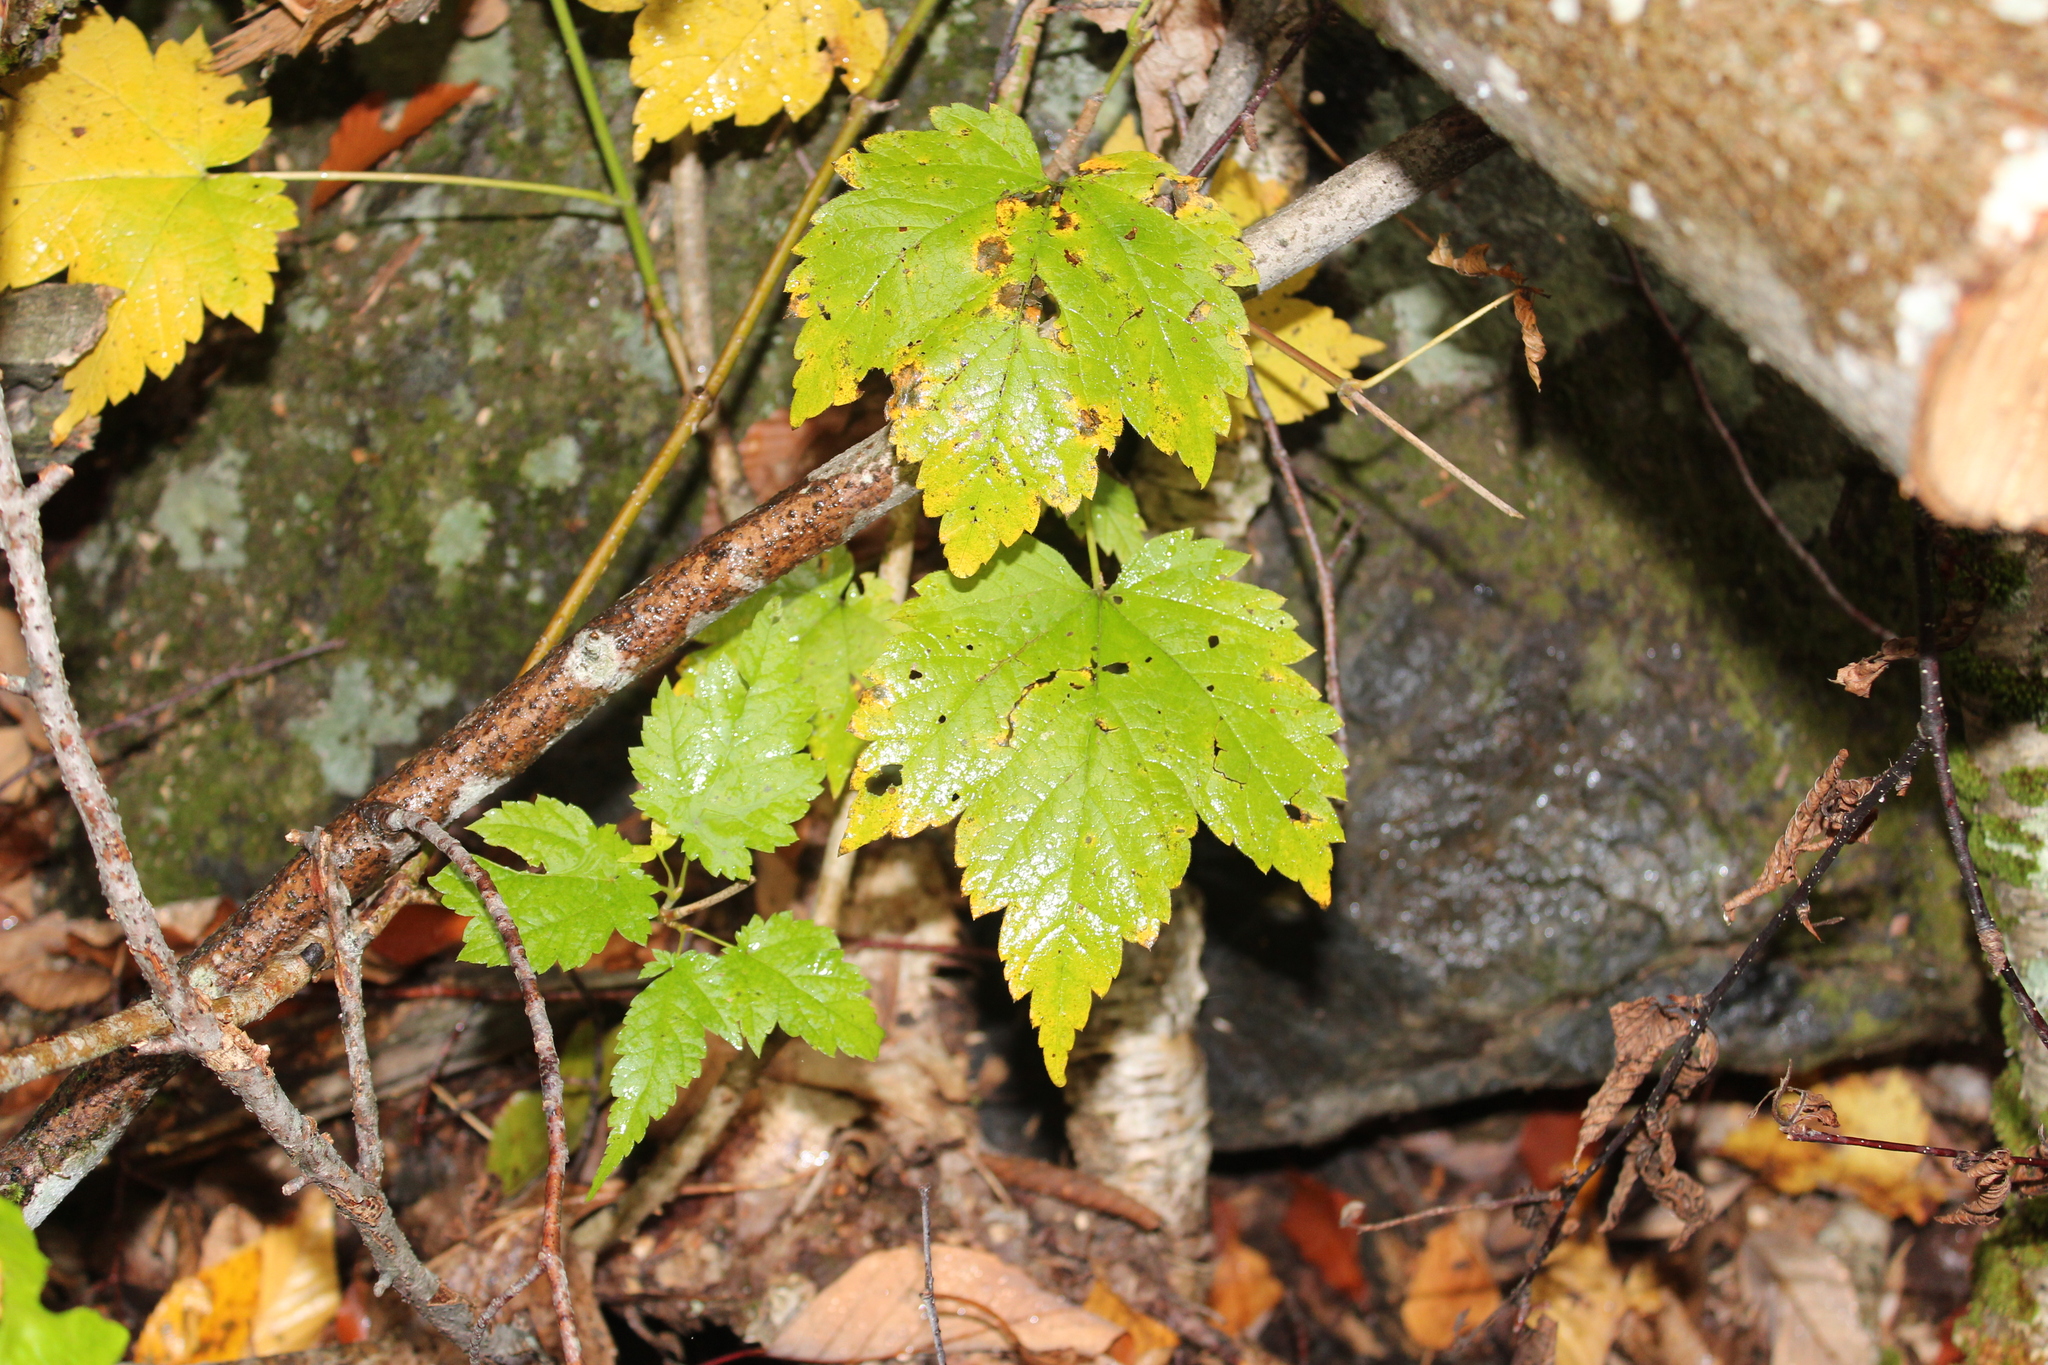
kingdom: Plantae
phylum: Tracheophyta
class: Magnoliopsida
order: Sapindales
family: Sapindaceae
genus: Acer
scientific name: Acer spicatum
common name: Mountain maple
